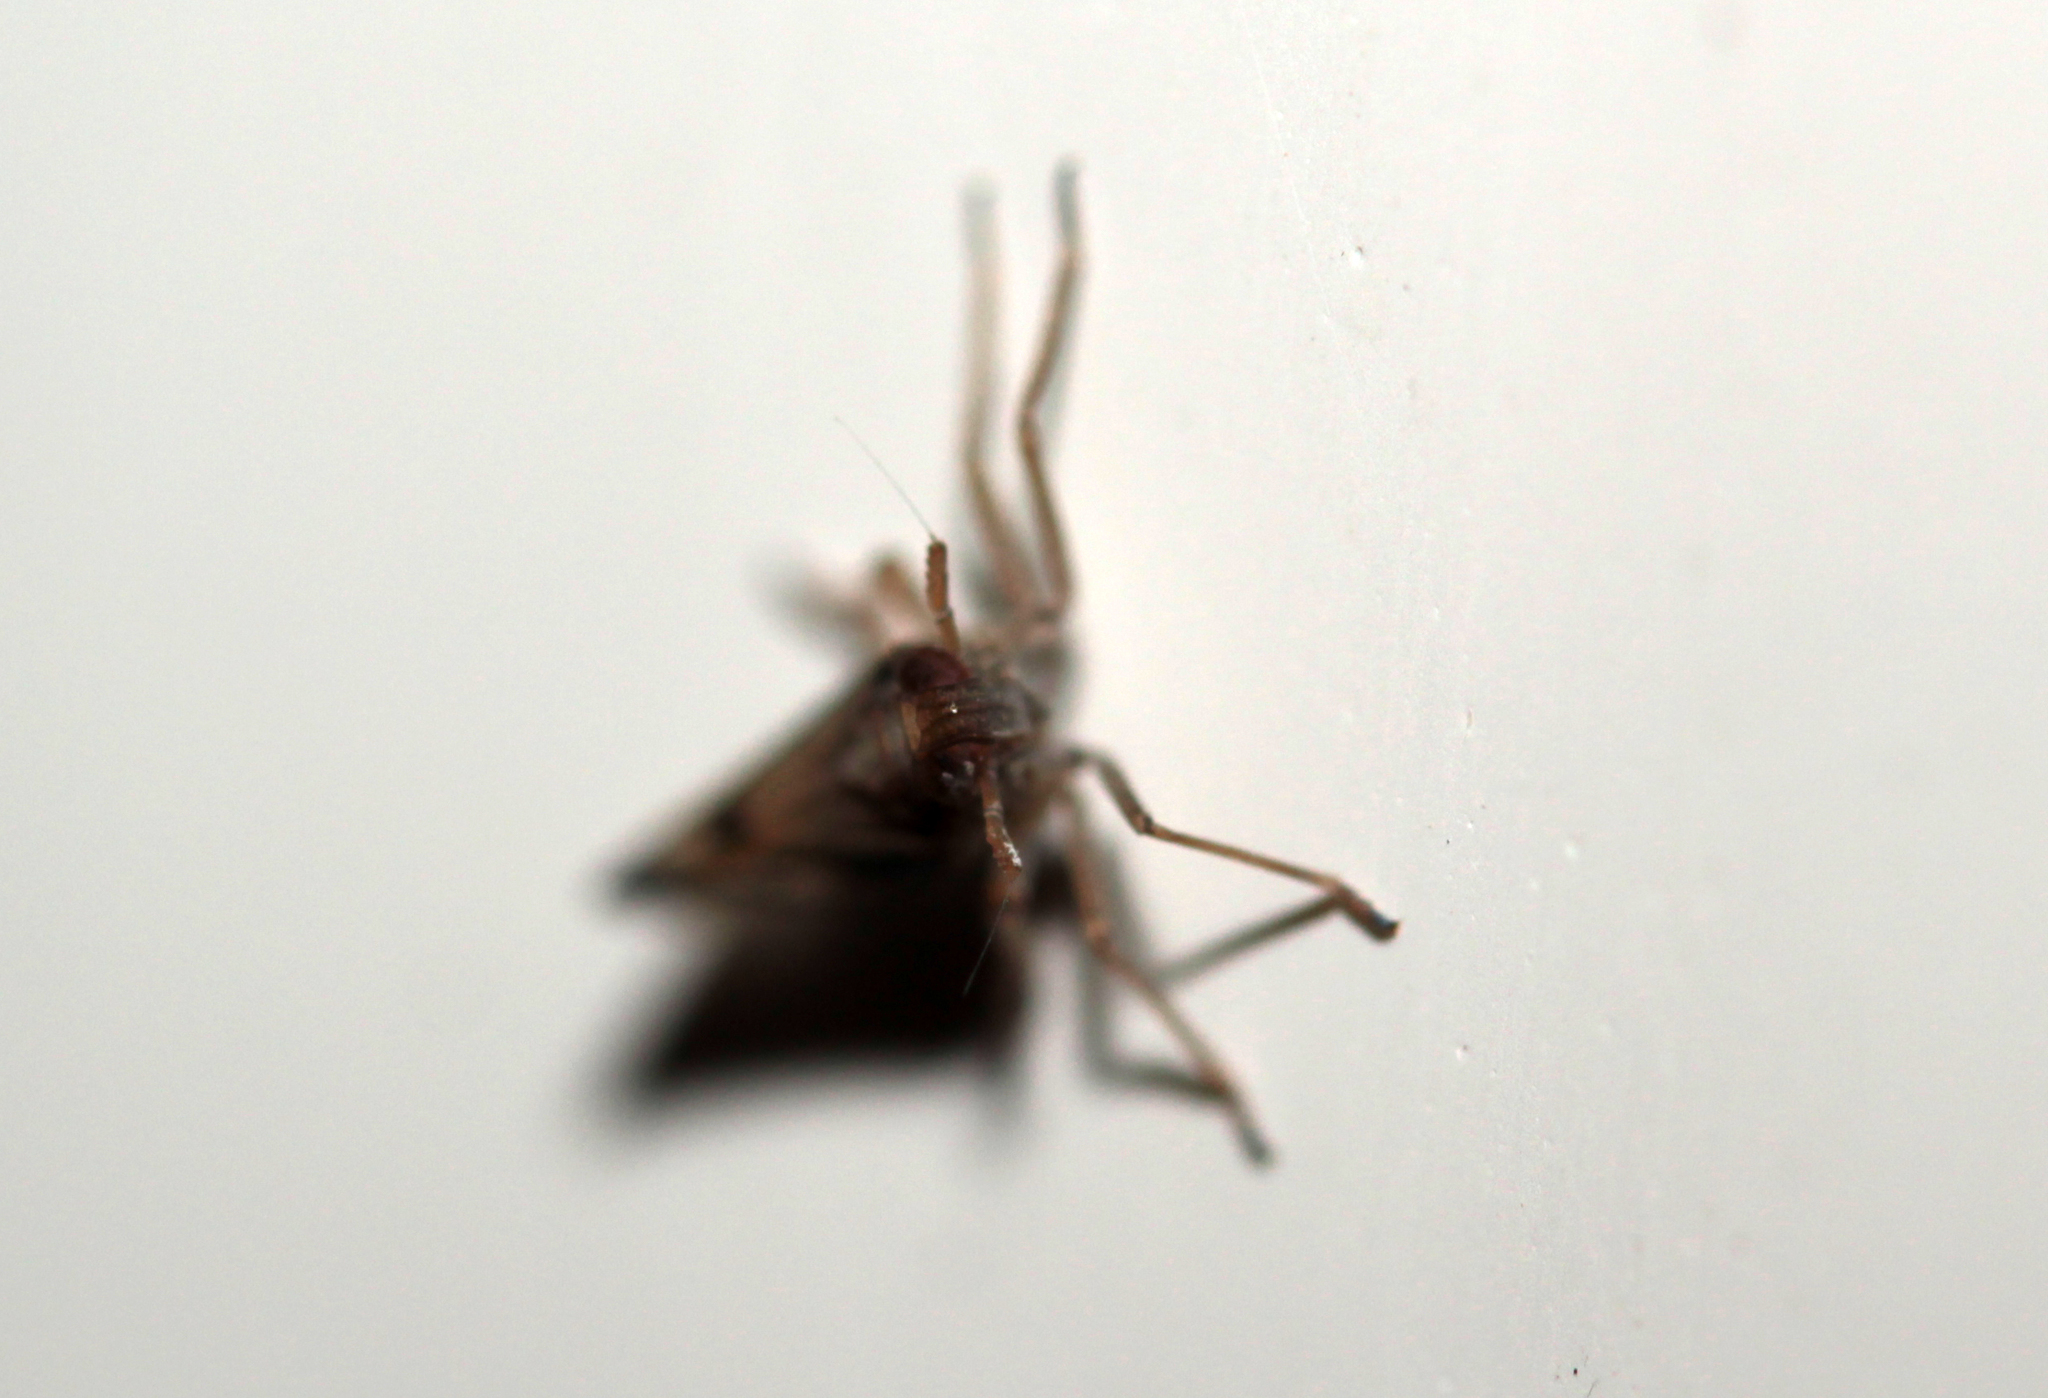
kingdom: Animalia
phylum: Arthropoda
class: Insecta
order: Hemiptera
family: Delphacidae
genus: Euides
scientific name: Euides speciosa
